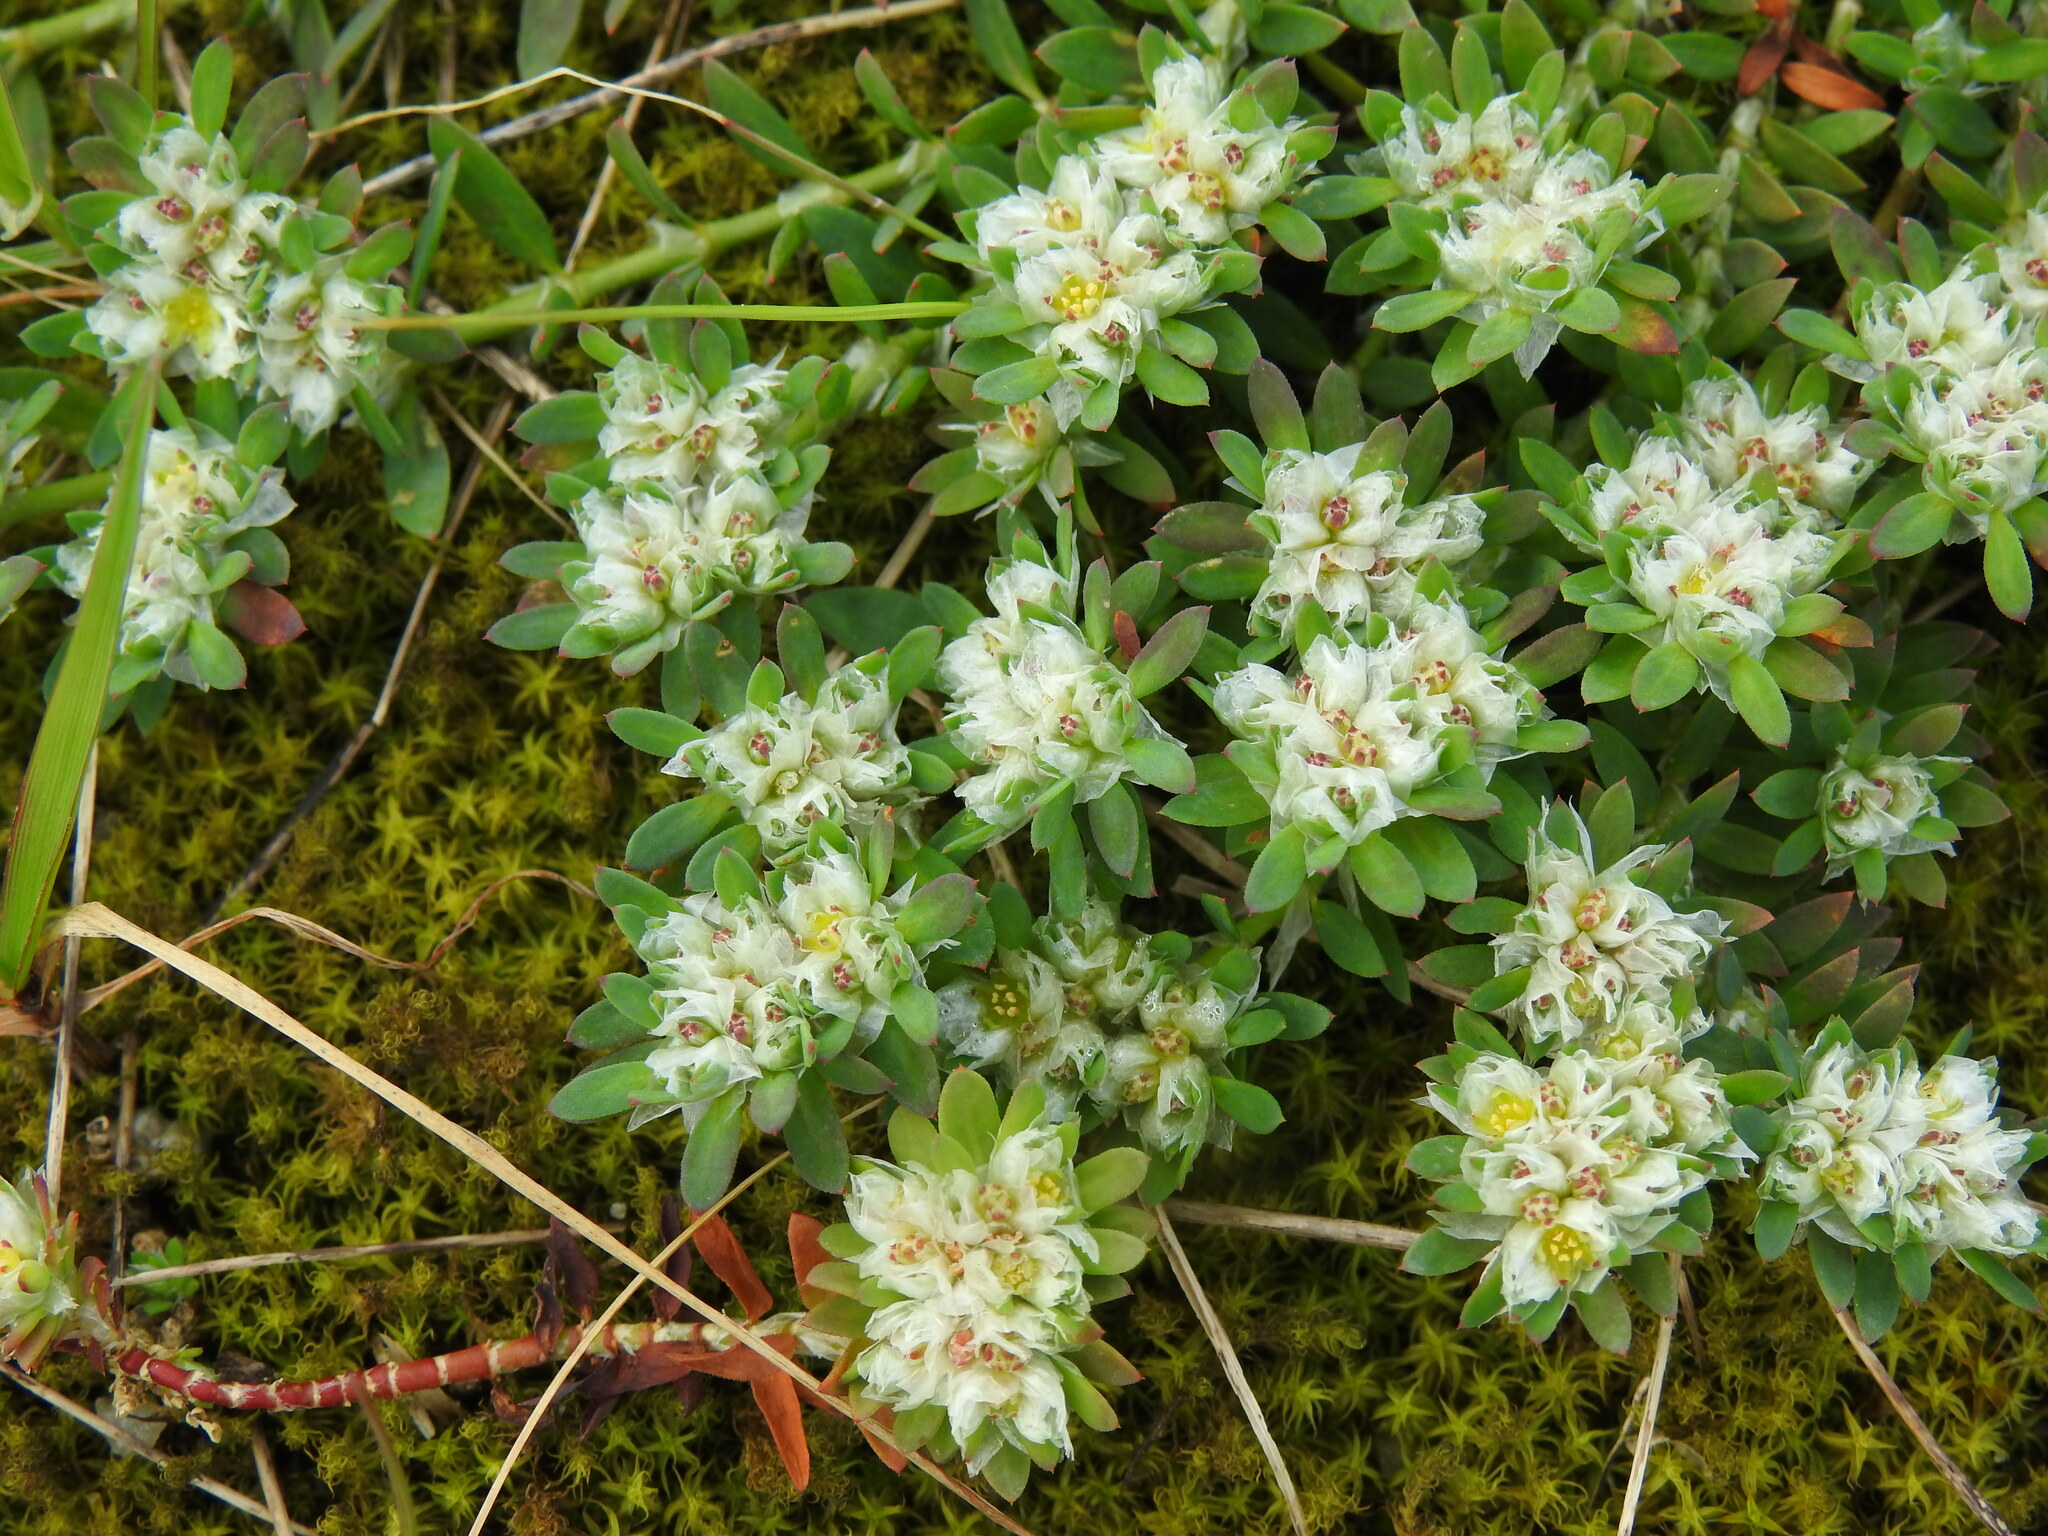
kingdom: Plantae
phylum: Tracheophyta
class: Magnoliopsida
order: Caryophyllales
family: Caryophyllaceae
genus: Paronychia
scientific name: Paronychia argentea
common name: Silver nailroot
